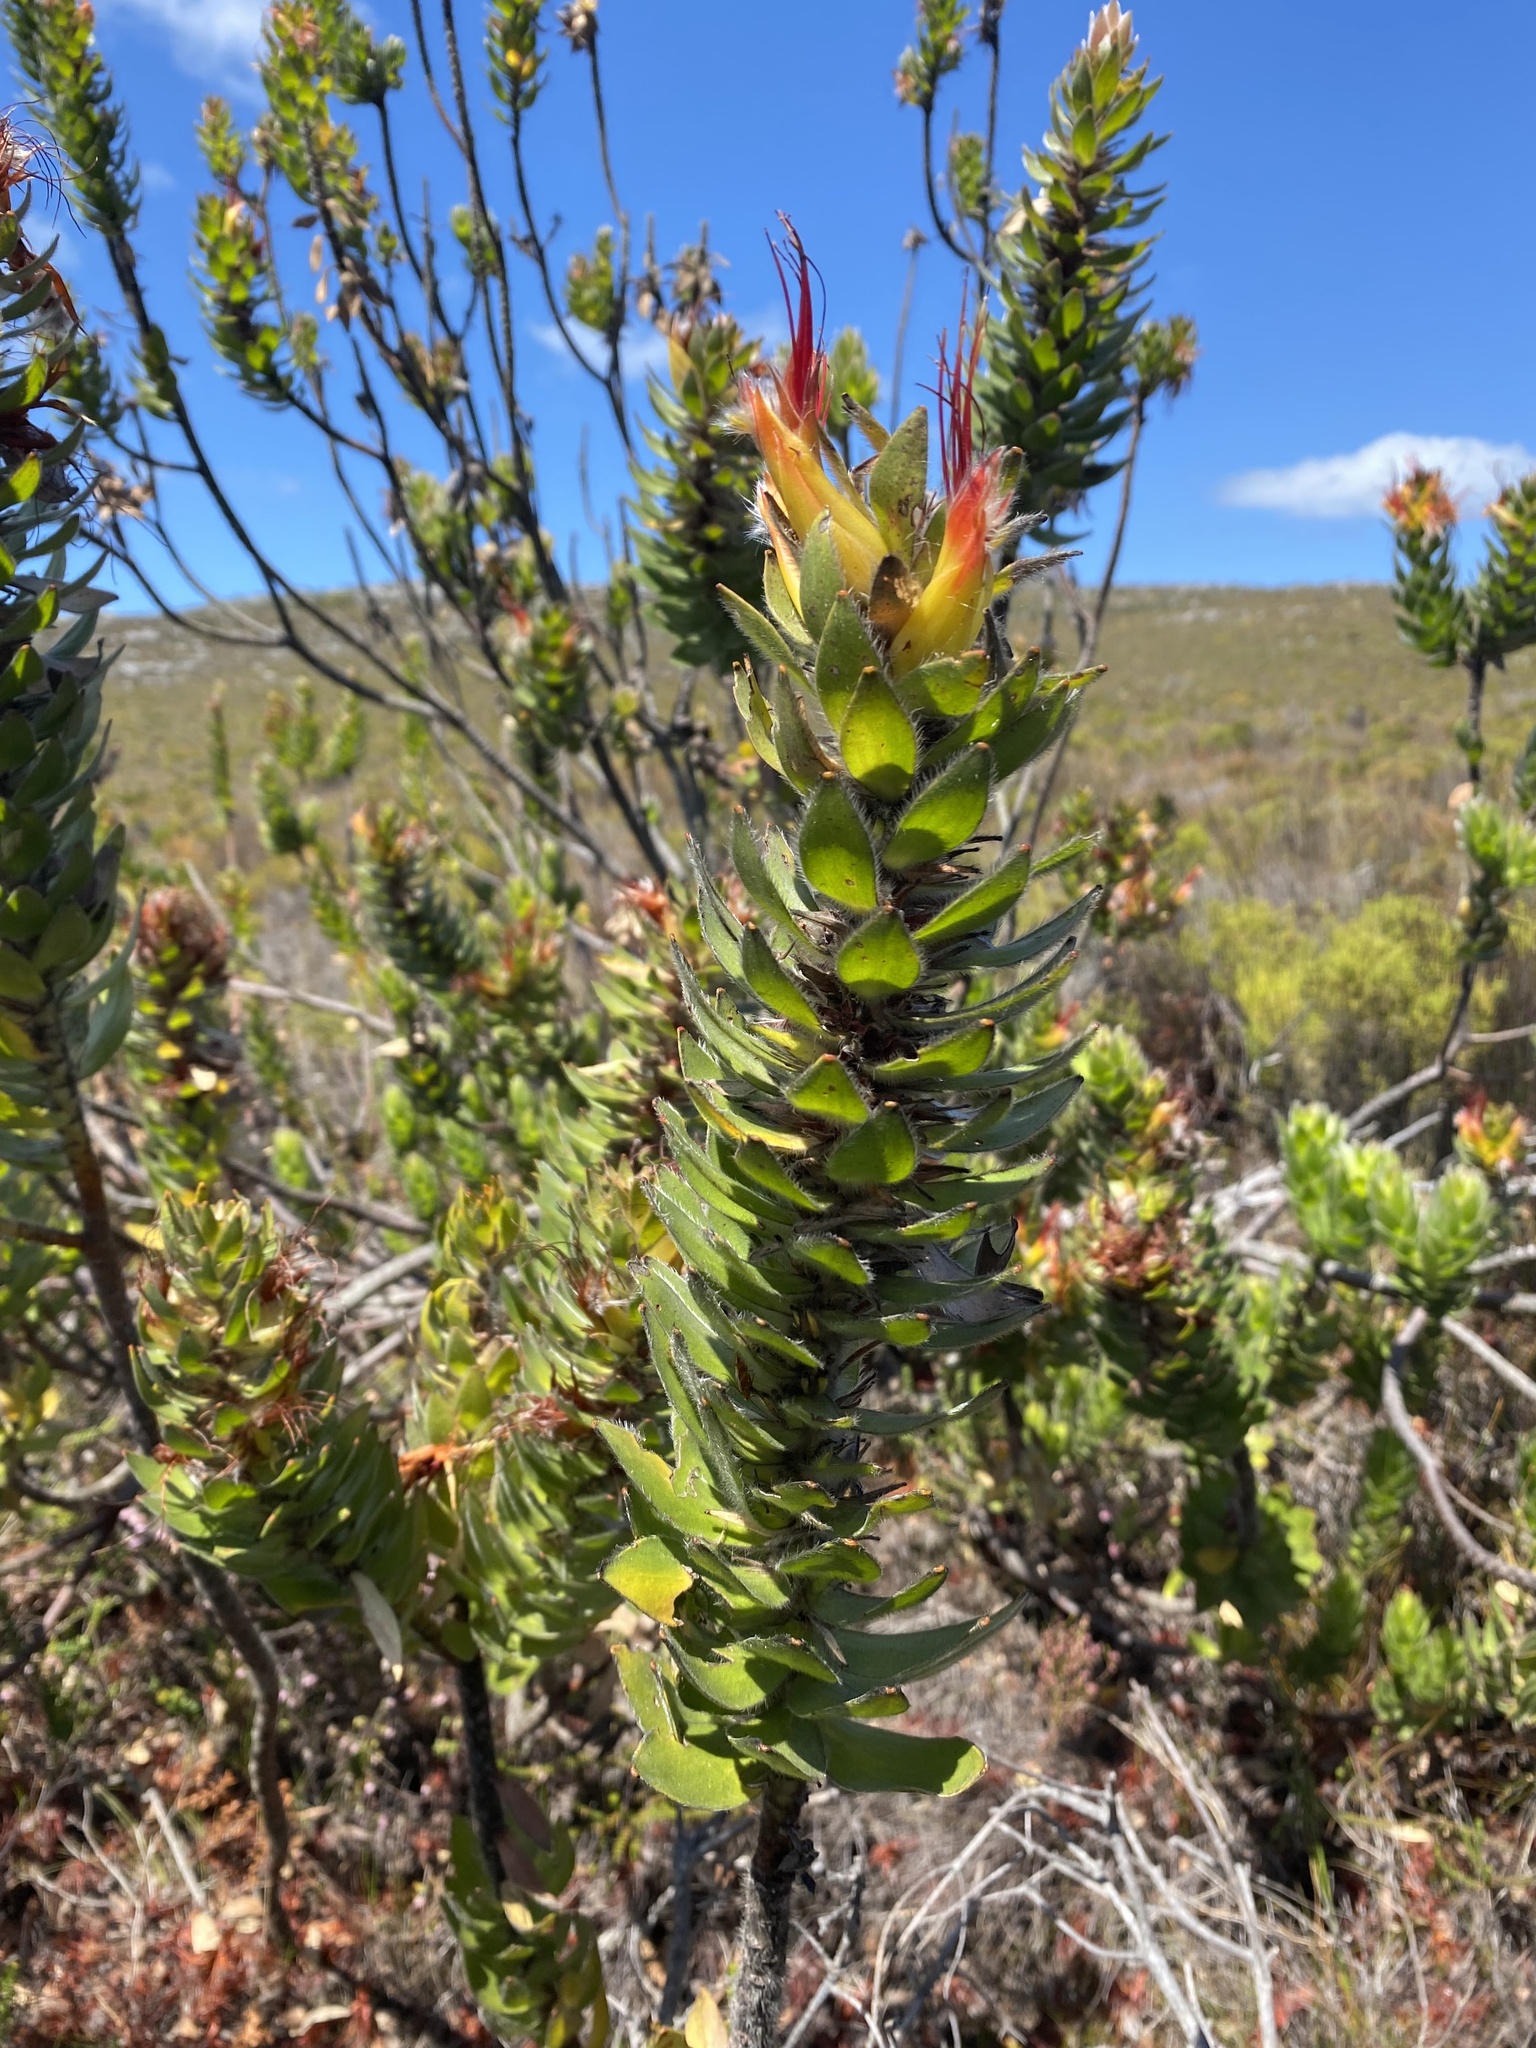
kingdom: Plantae
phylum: Tracheophyta
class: Magnoliopsida
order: Proteales
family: Proteaceae
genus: Mimetes
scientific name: Mimetes hirtus
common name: Marsh pagoda
